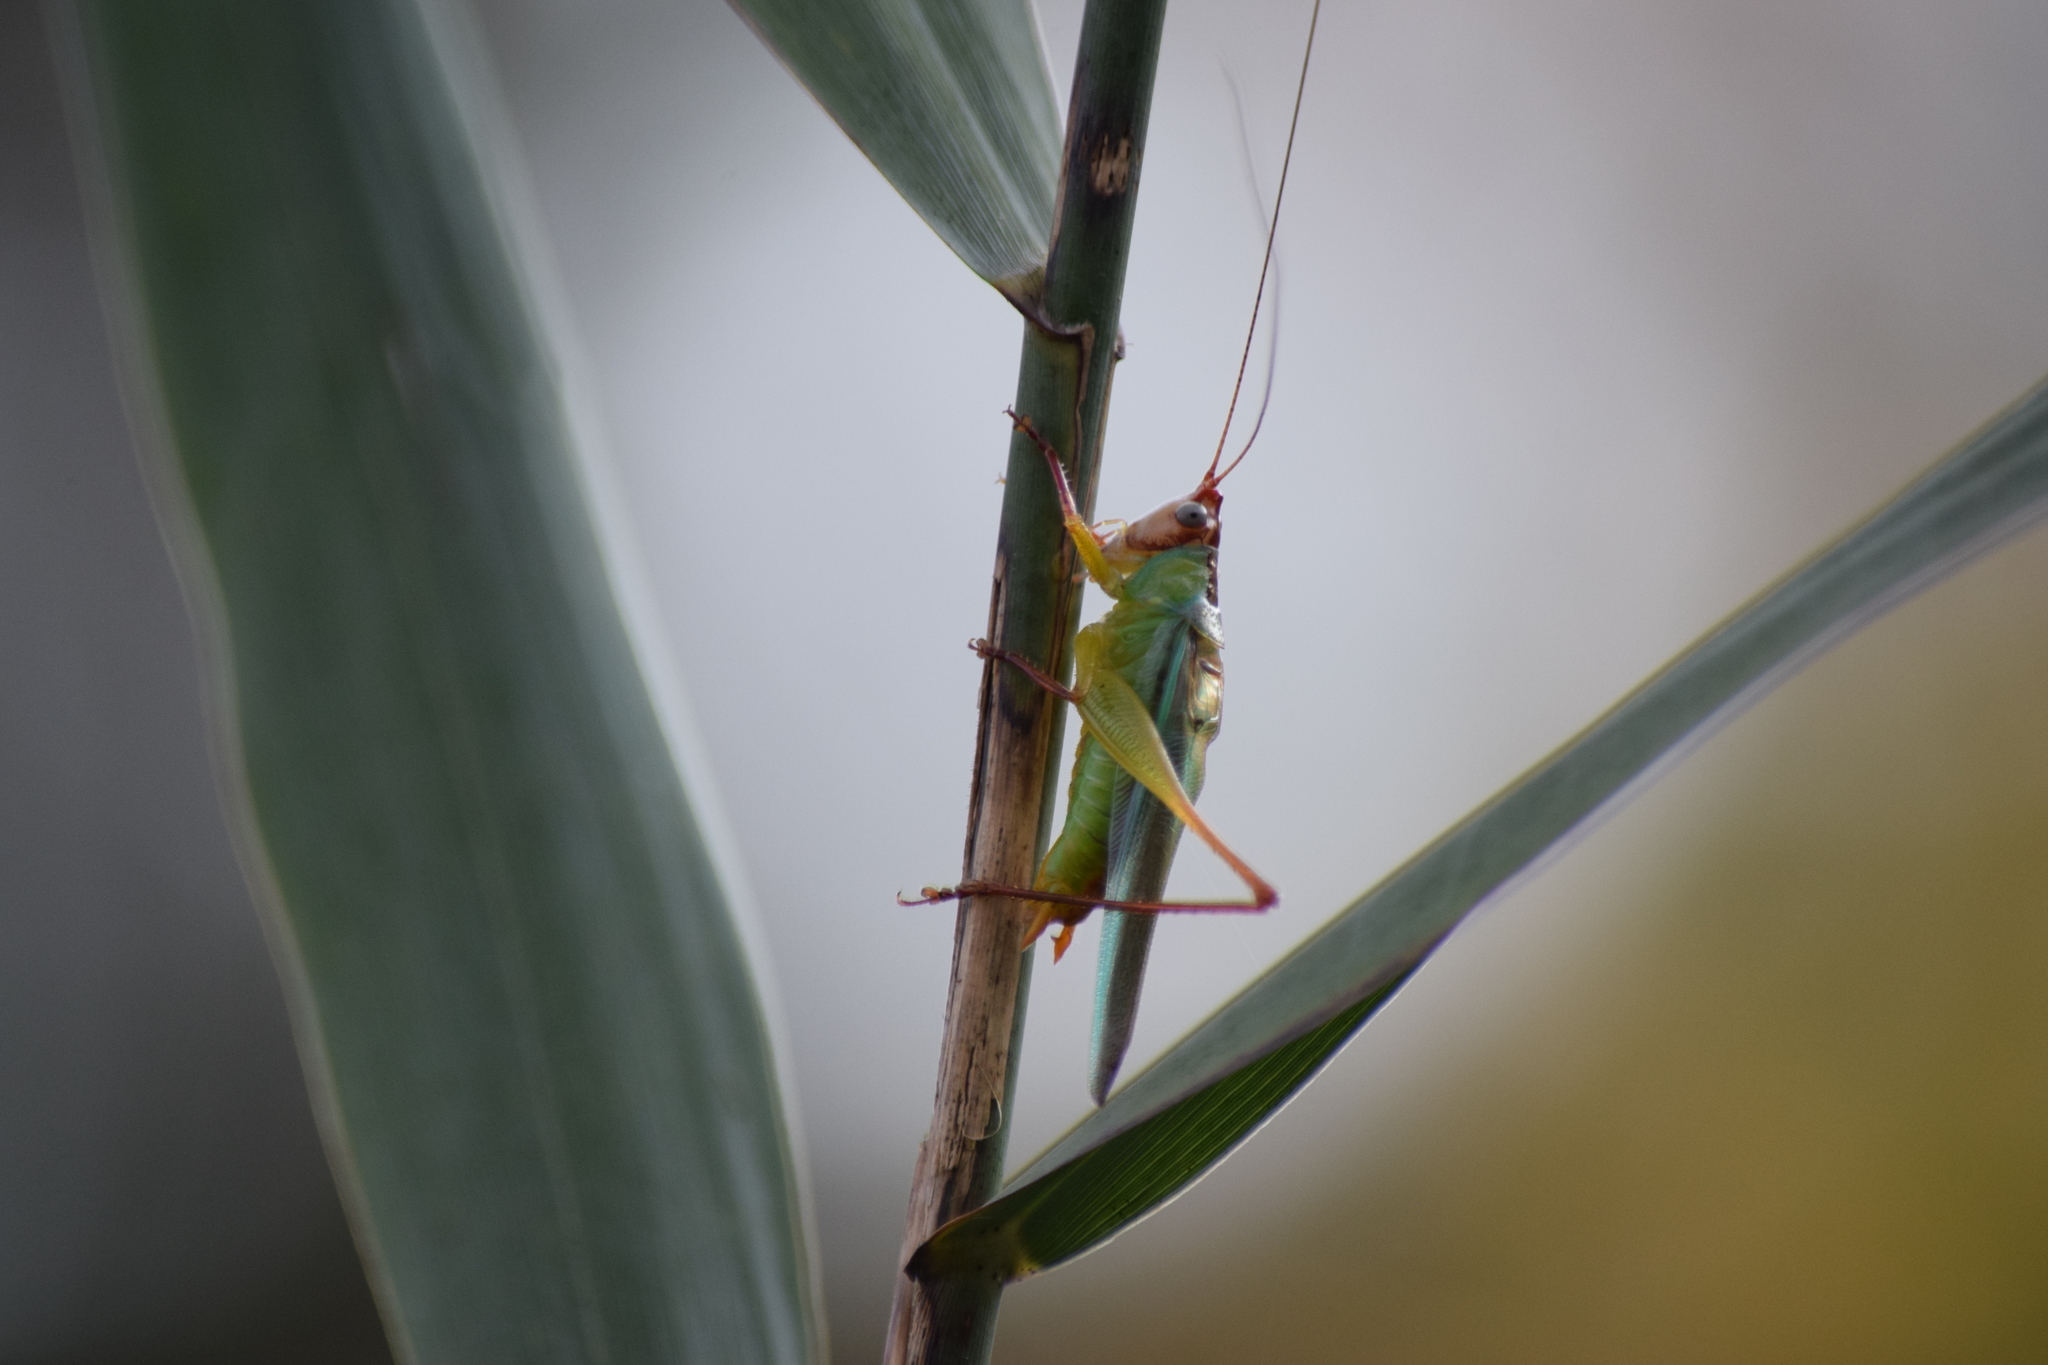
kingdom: Animalia
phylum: Arthropoda
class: Insecta
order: Orthoptera
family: Tettigoniidae
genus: Orchelimum
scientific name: Orchelimum pulchellum
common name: Handsome meadow katydid
